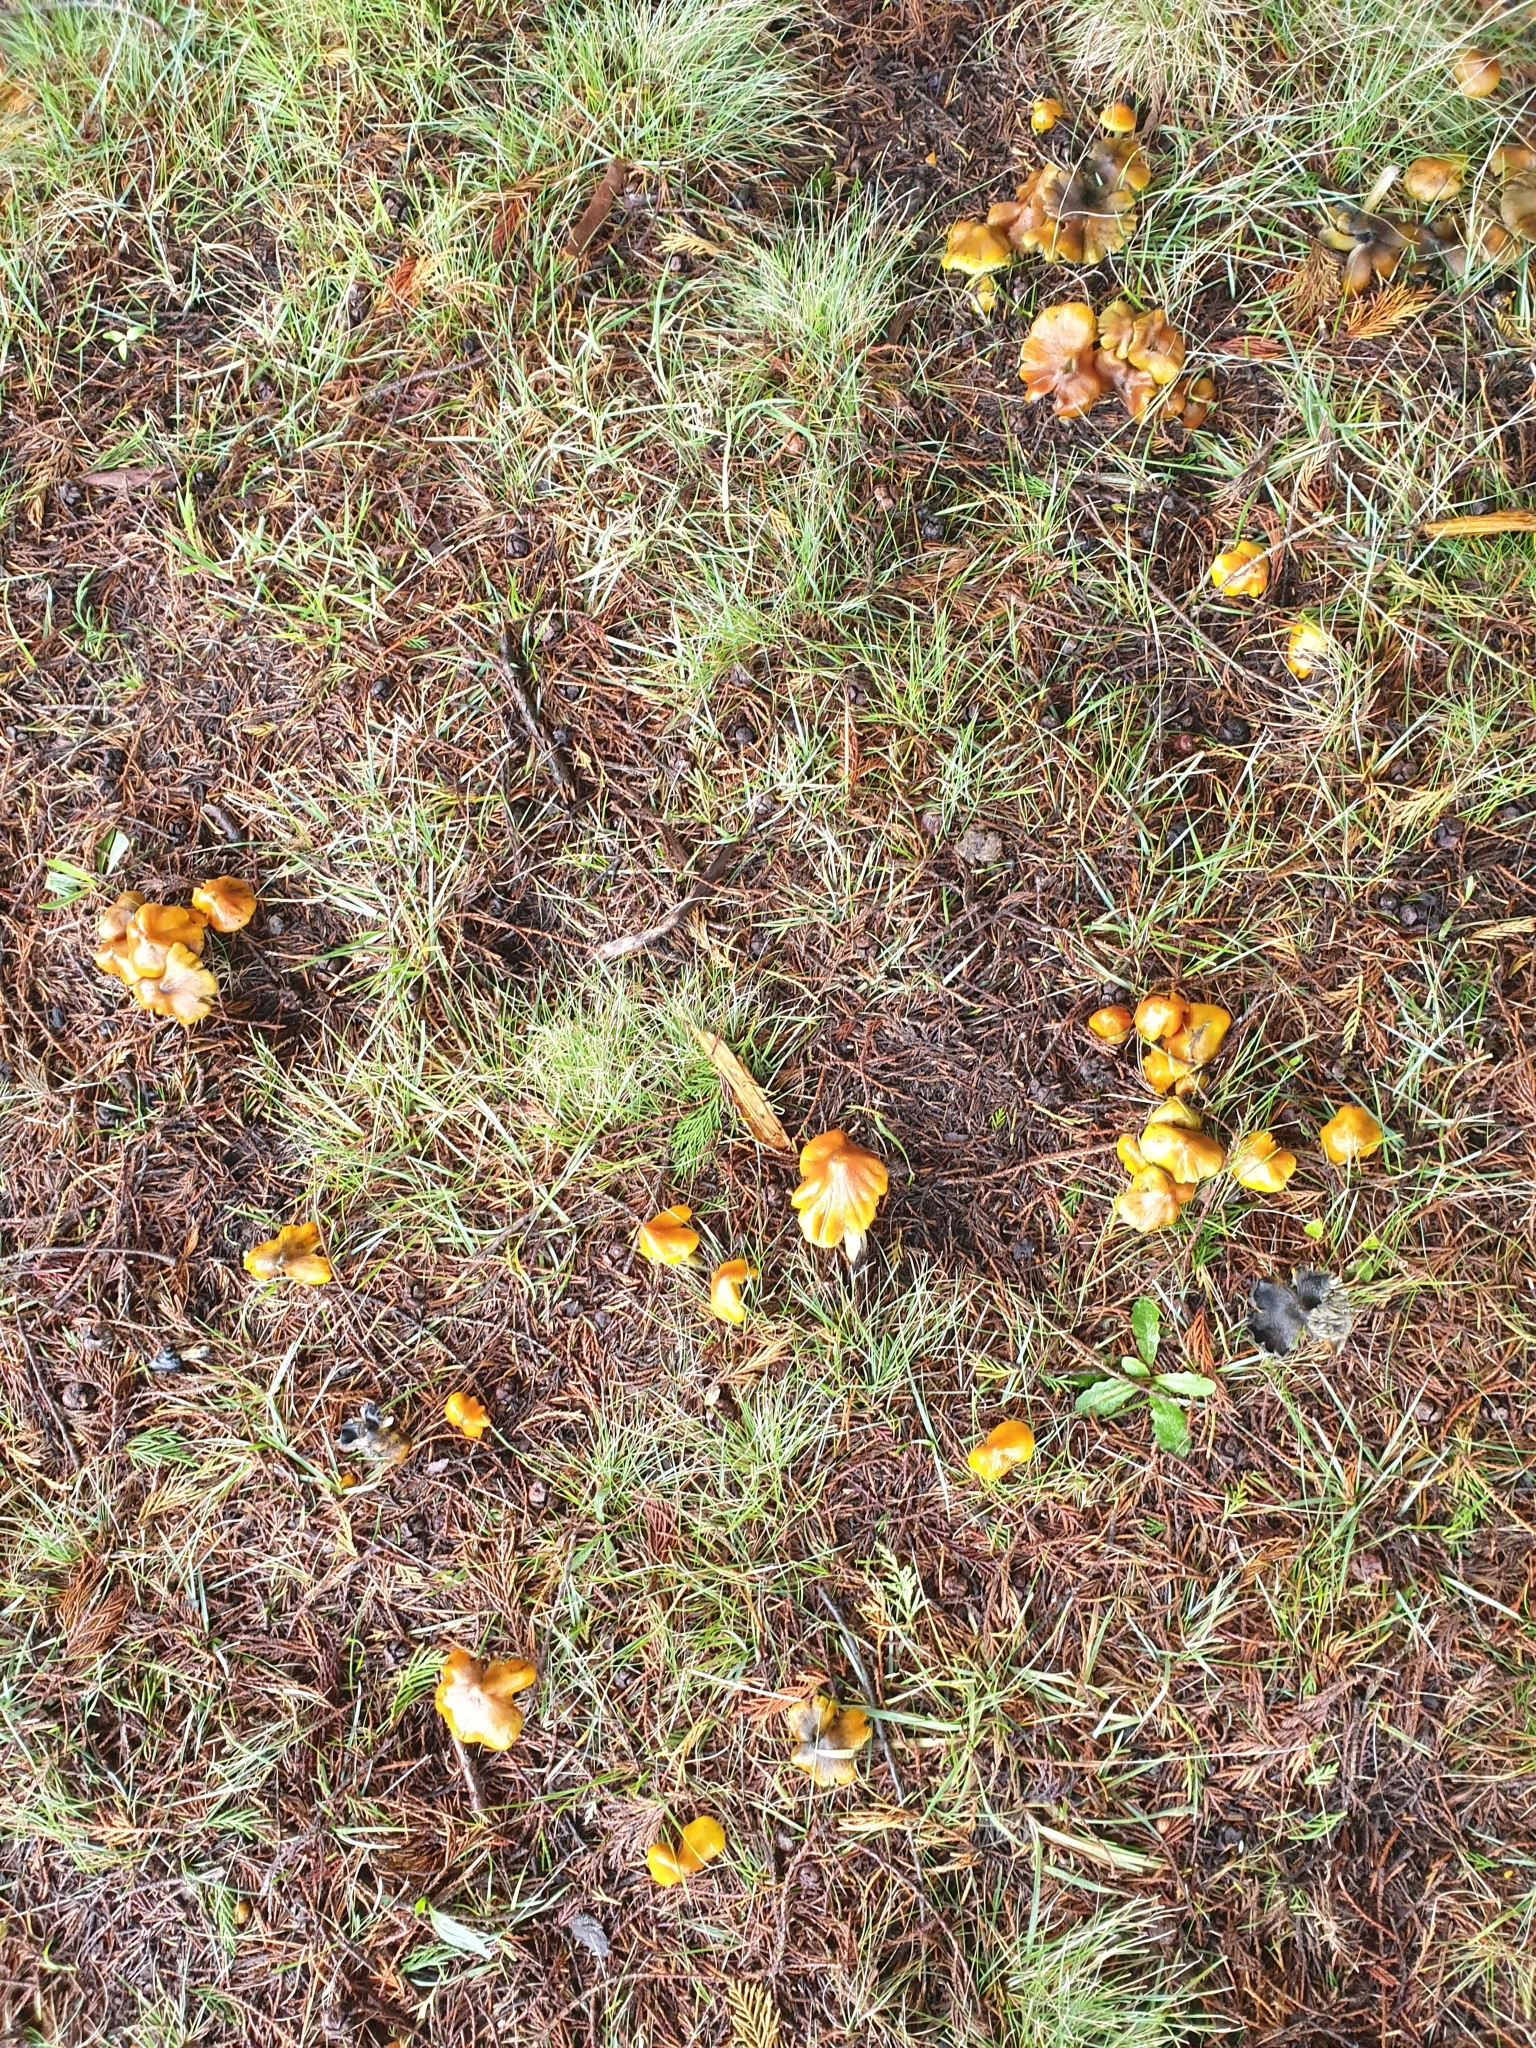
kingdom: Fungi
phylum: Basidiomycota
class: Agaricomycetes
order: Agaricales
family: Hygrophoraceae
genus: Hygrocybe
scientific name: Hygrocybe conica
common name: Blackening wax-cap
